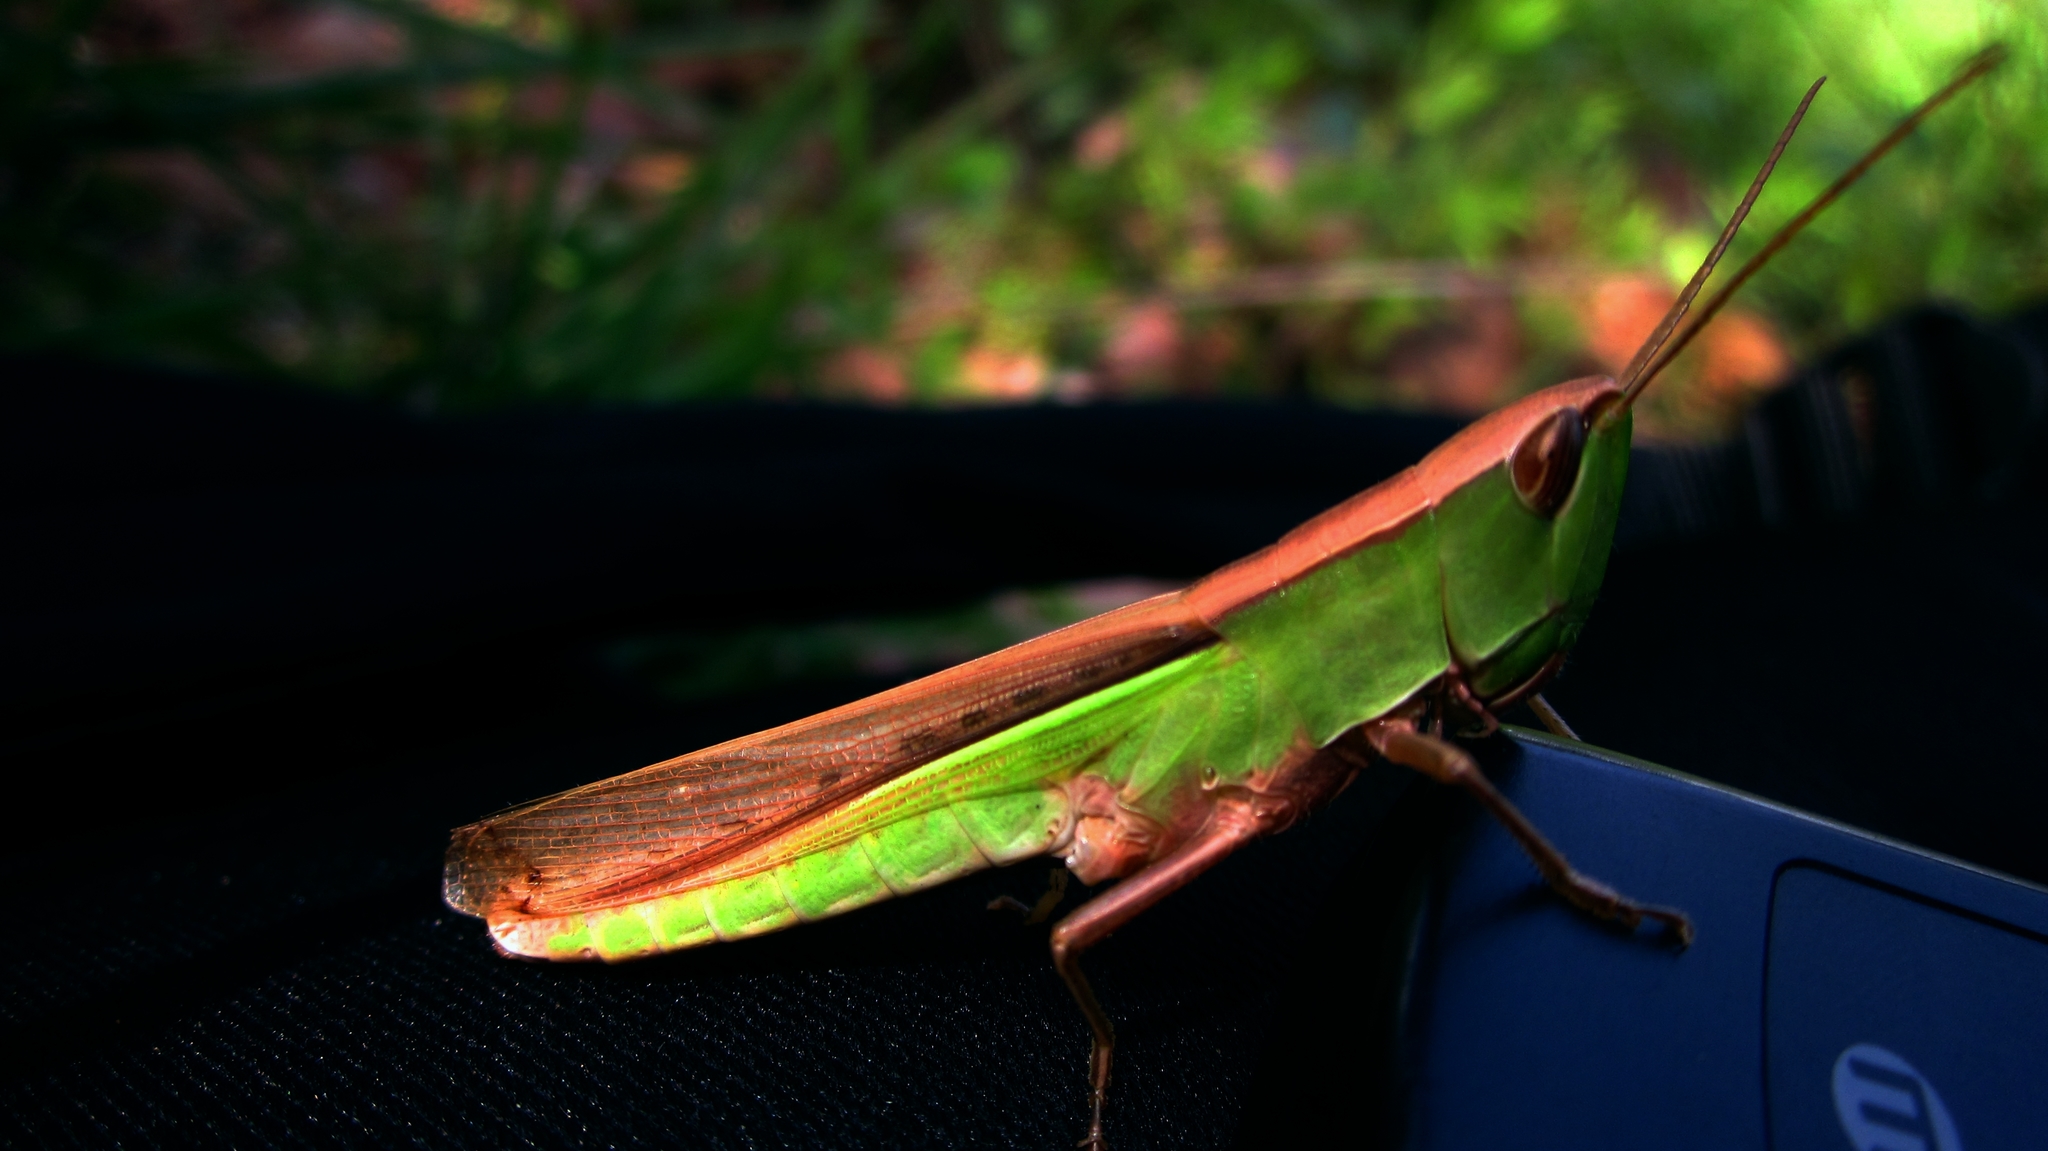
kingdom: Animalia
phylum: Arthropoda
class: Insecta
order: Orthoptera
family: Acrididae
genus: Orthochtha
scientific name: Orthochtha indica
